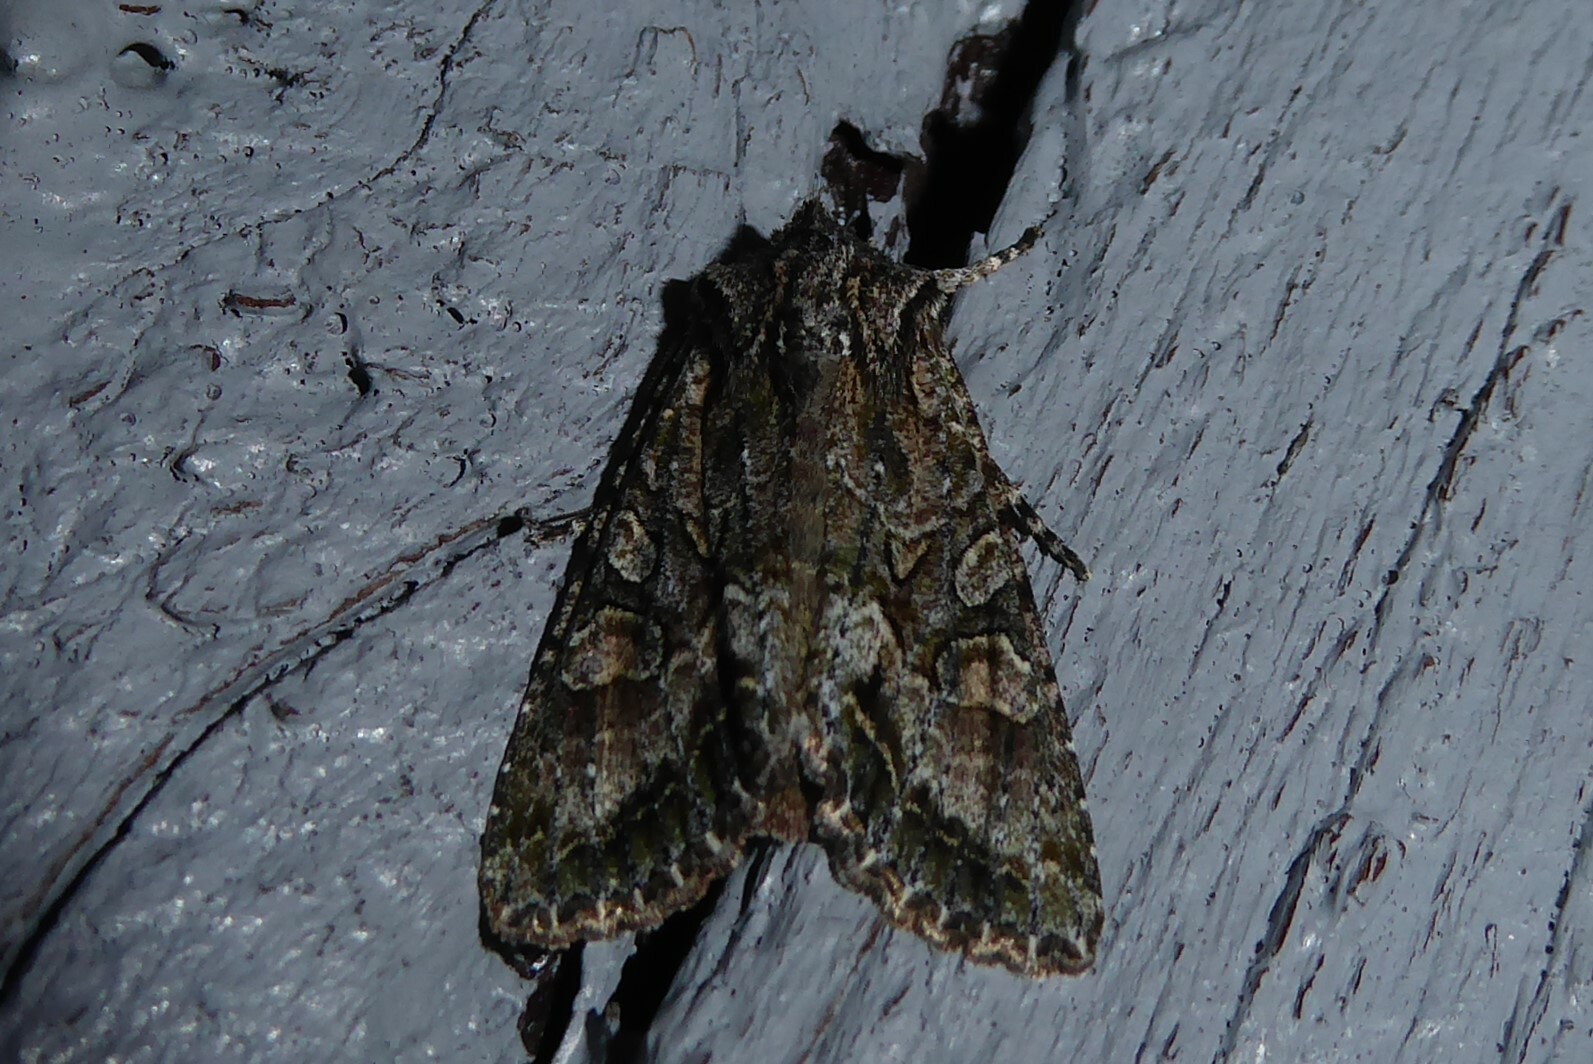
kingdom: Animalia
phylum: Arthropoda
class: Insecta
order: Lepidoptera
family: Noctuidae
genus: Ichneutica
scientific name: Ichneutica mutans
